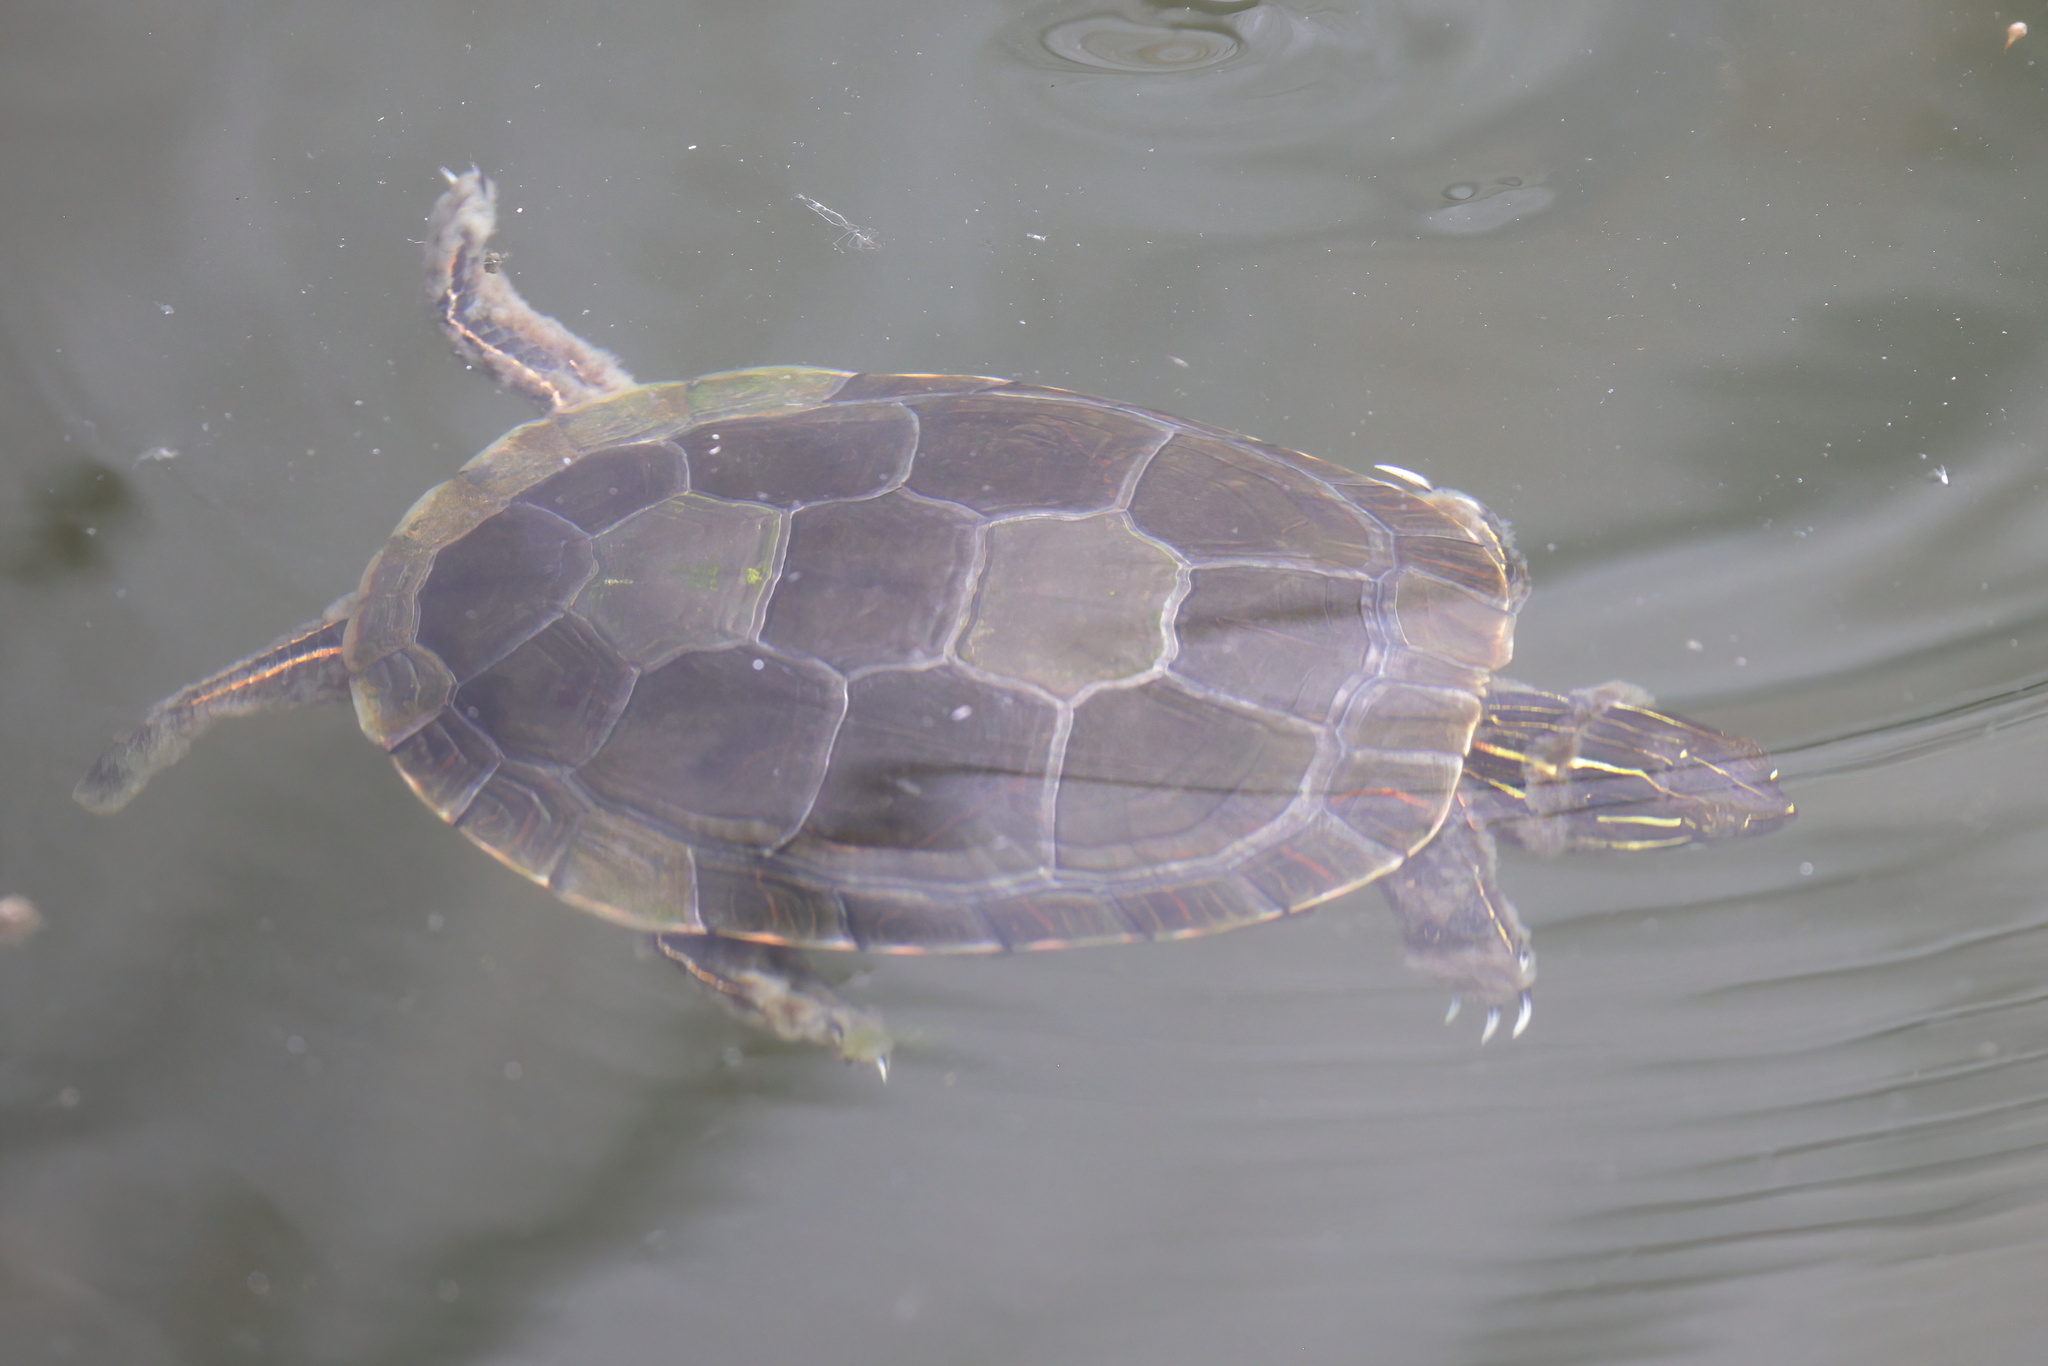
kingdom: Animalia
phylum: Chordata
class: Testudines
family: Emydidae
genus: Chrysemys
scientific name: Chrysemys picta
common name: Painted turtle
